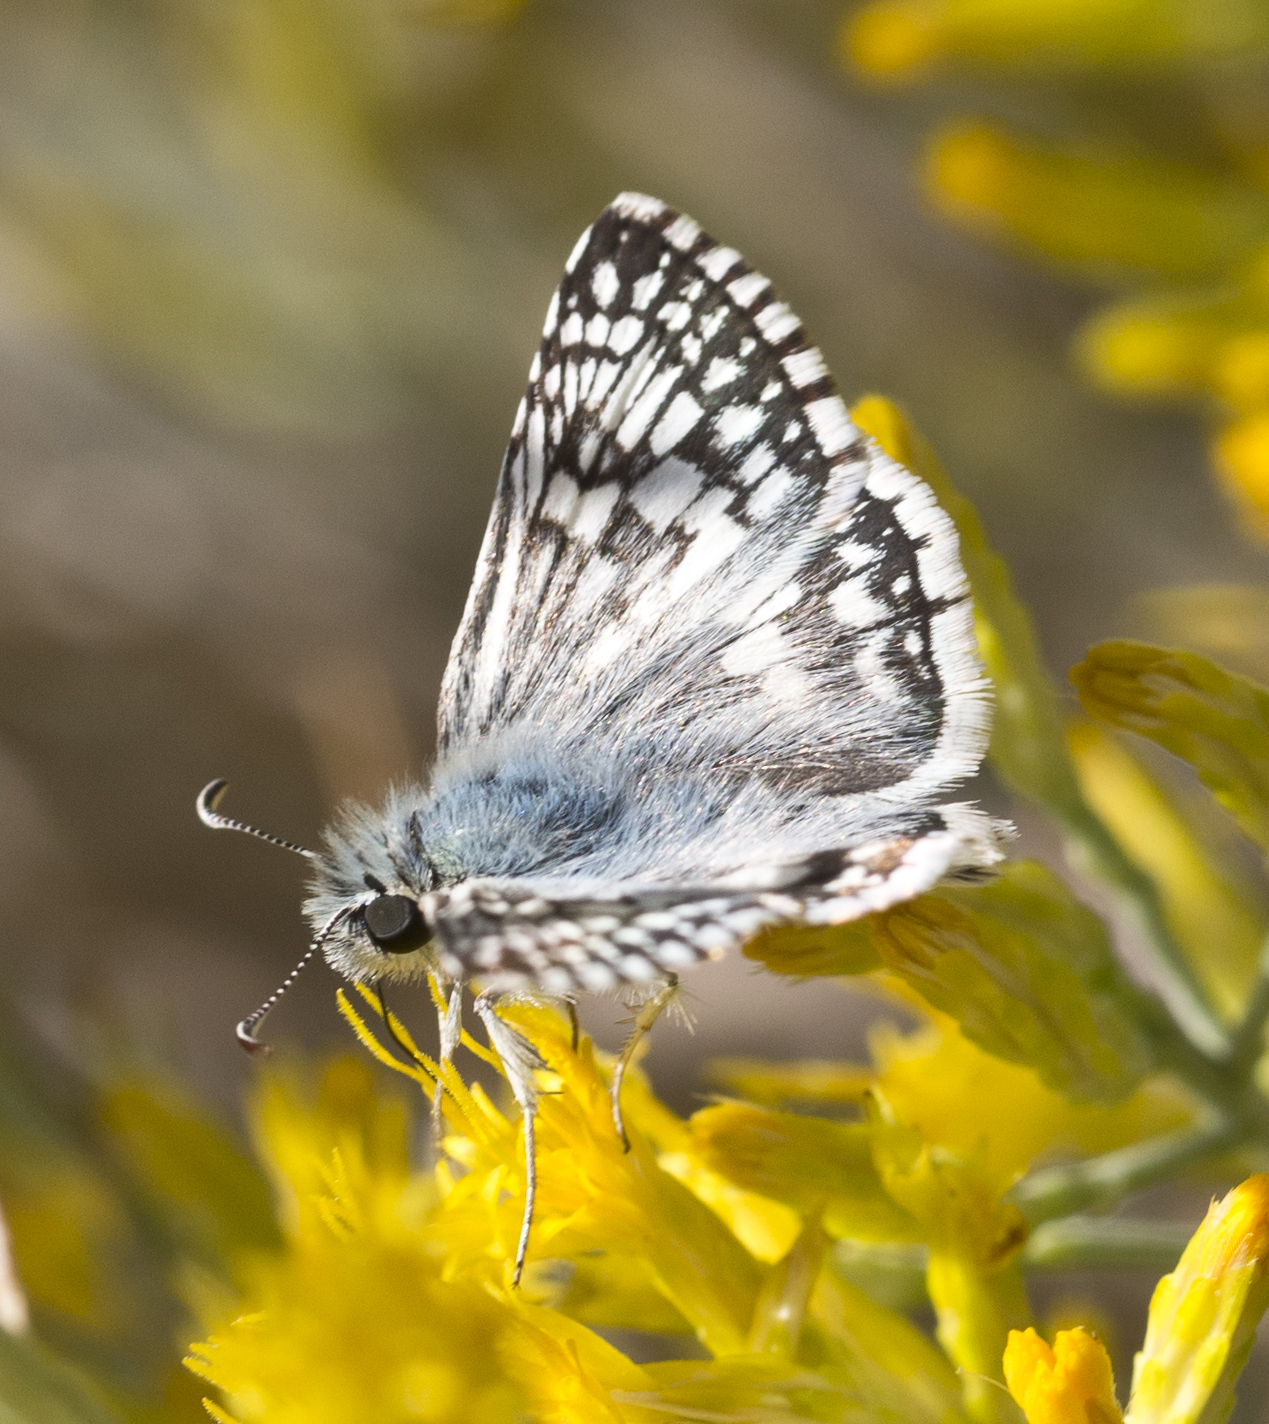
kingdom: Animalia
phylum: Arthropoda
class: Insecta
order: Lepidoptera
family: Hesperiidae
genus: Burnsius
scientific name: Burnsius albezens
